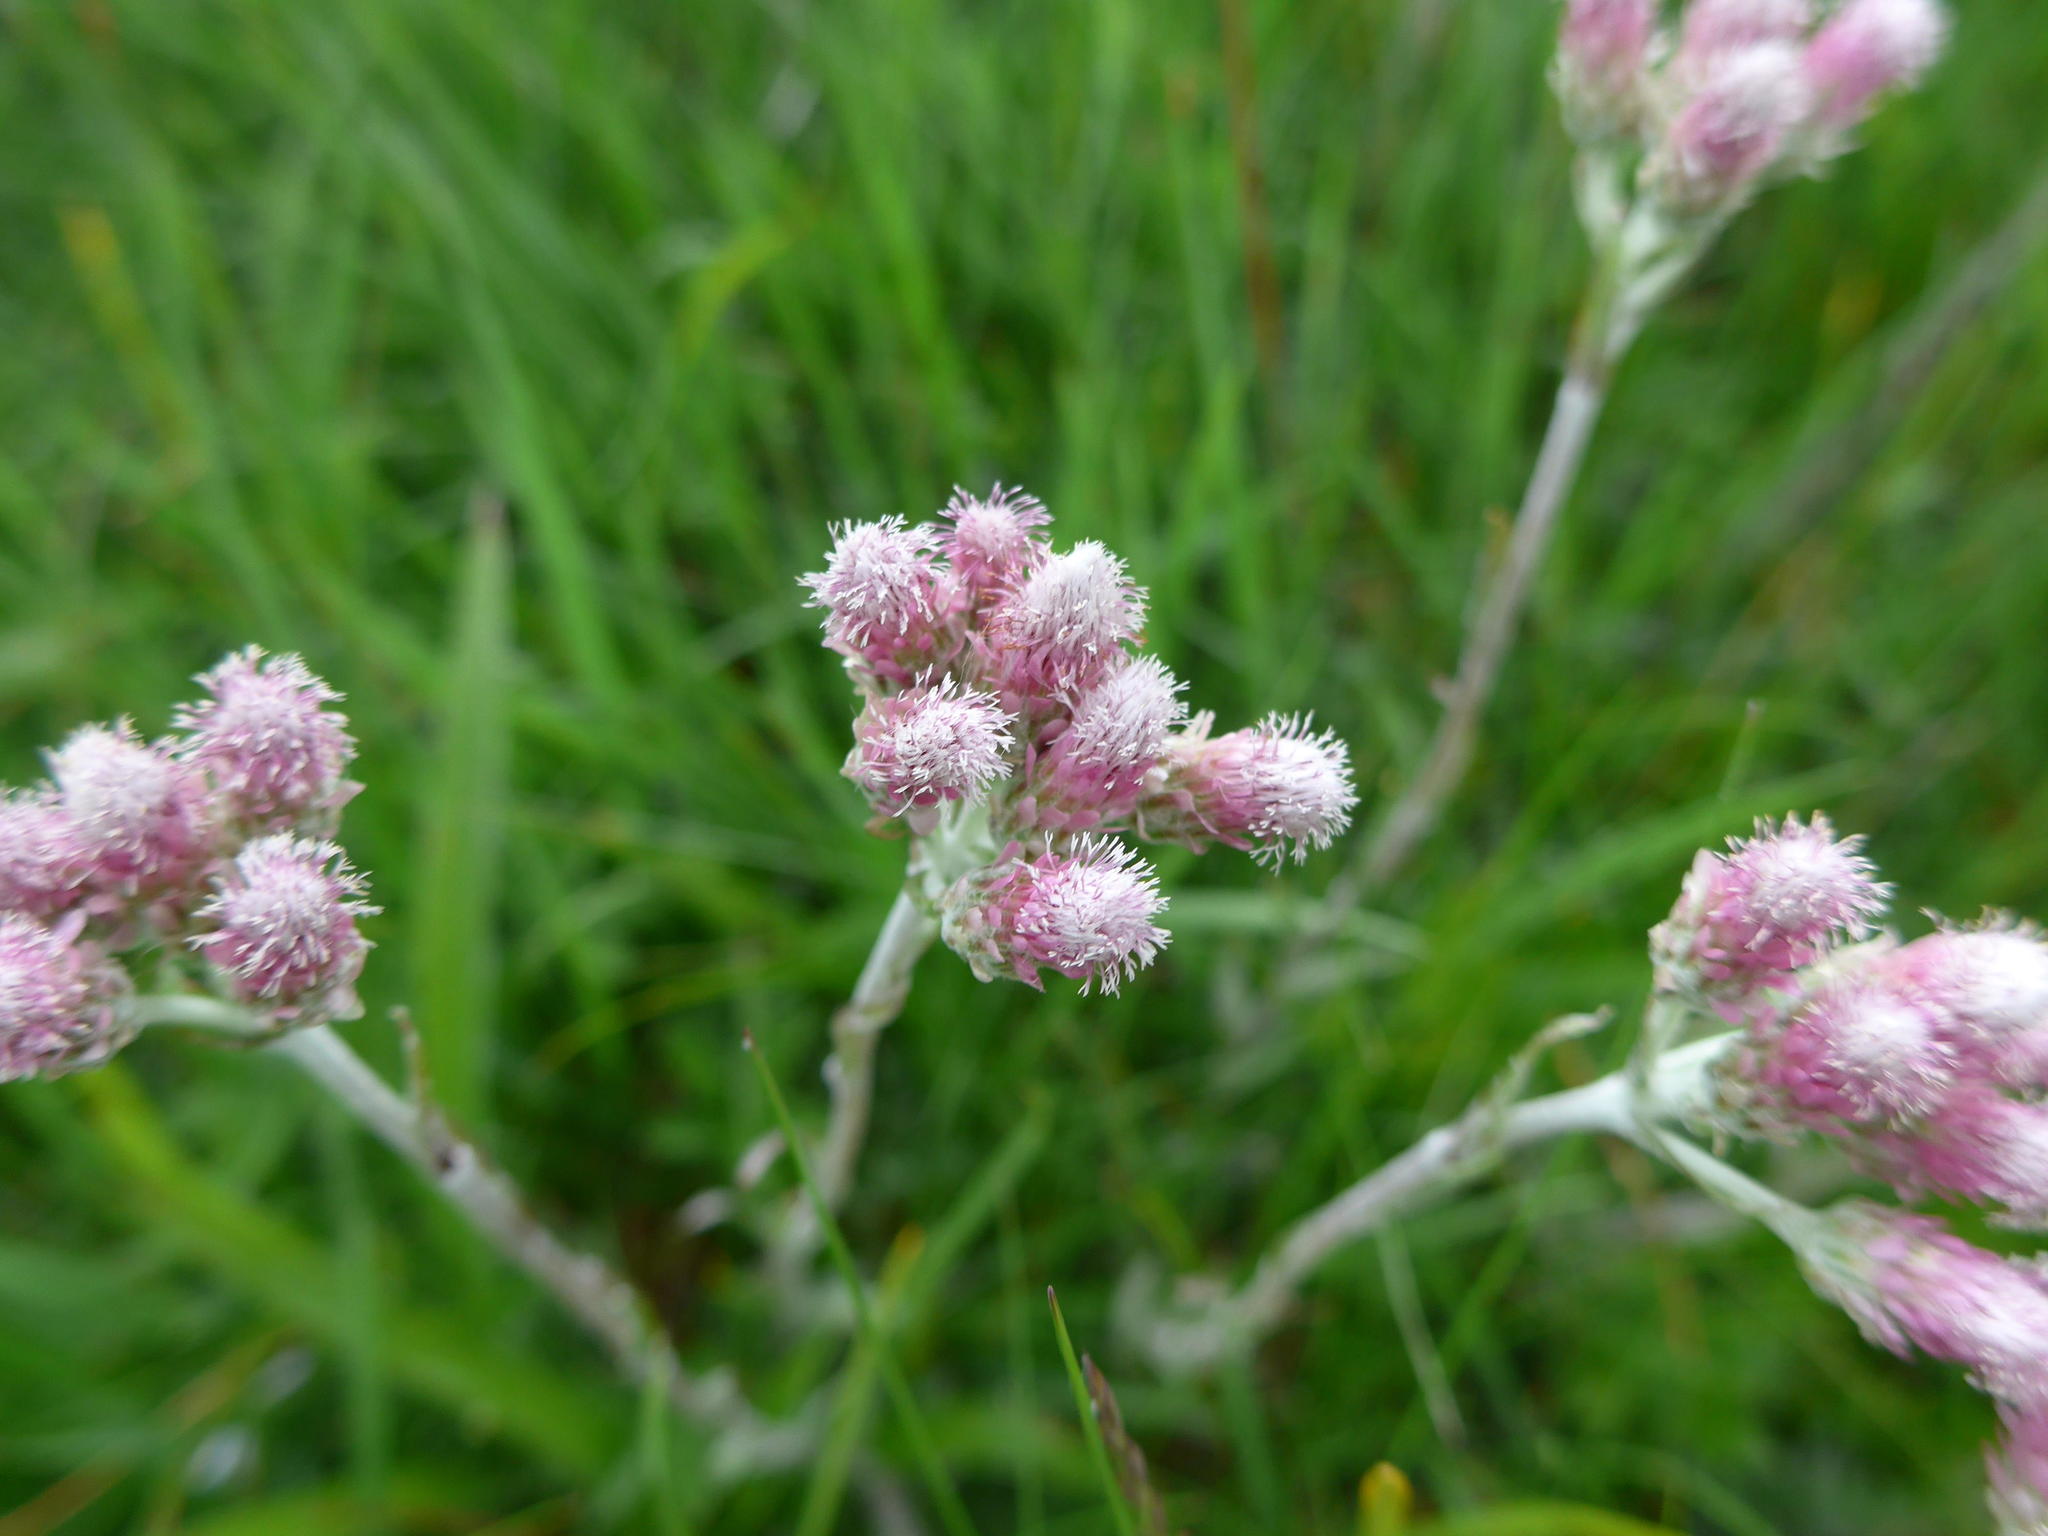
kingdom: Plantae
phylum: Tracheophyta
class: Magnoliopsida
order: Asterales
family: Asteraceae
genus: Antennaria
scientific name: Antennaria dioica
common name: Mountain everlasting
